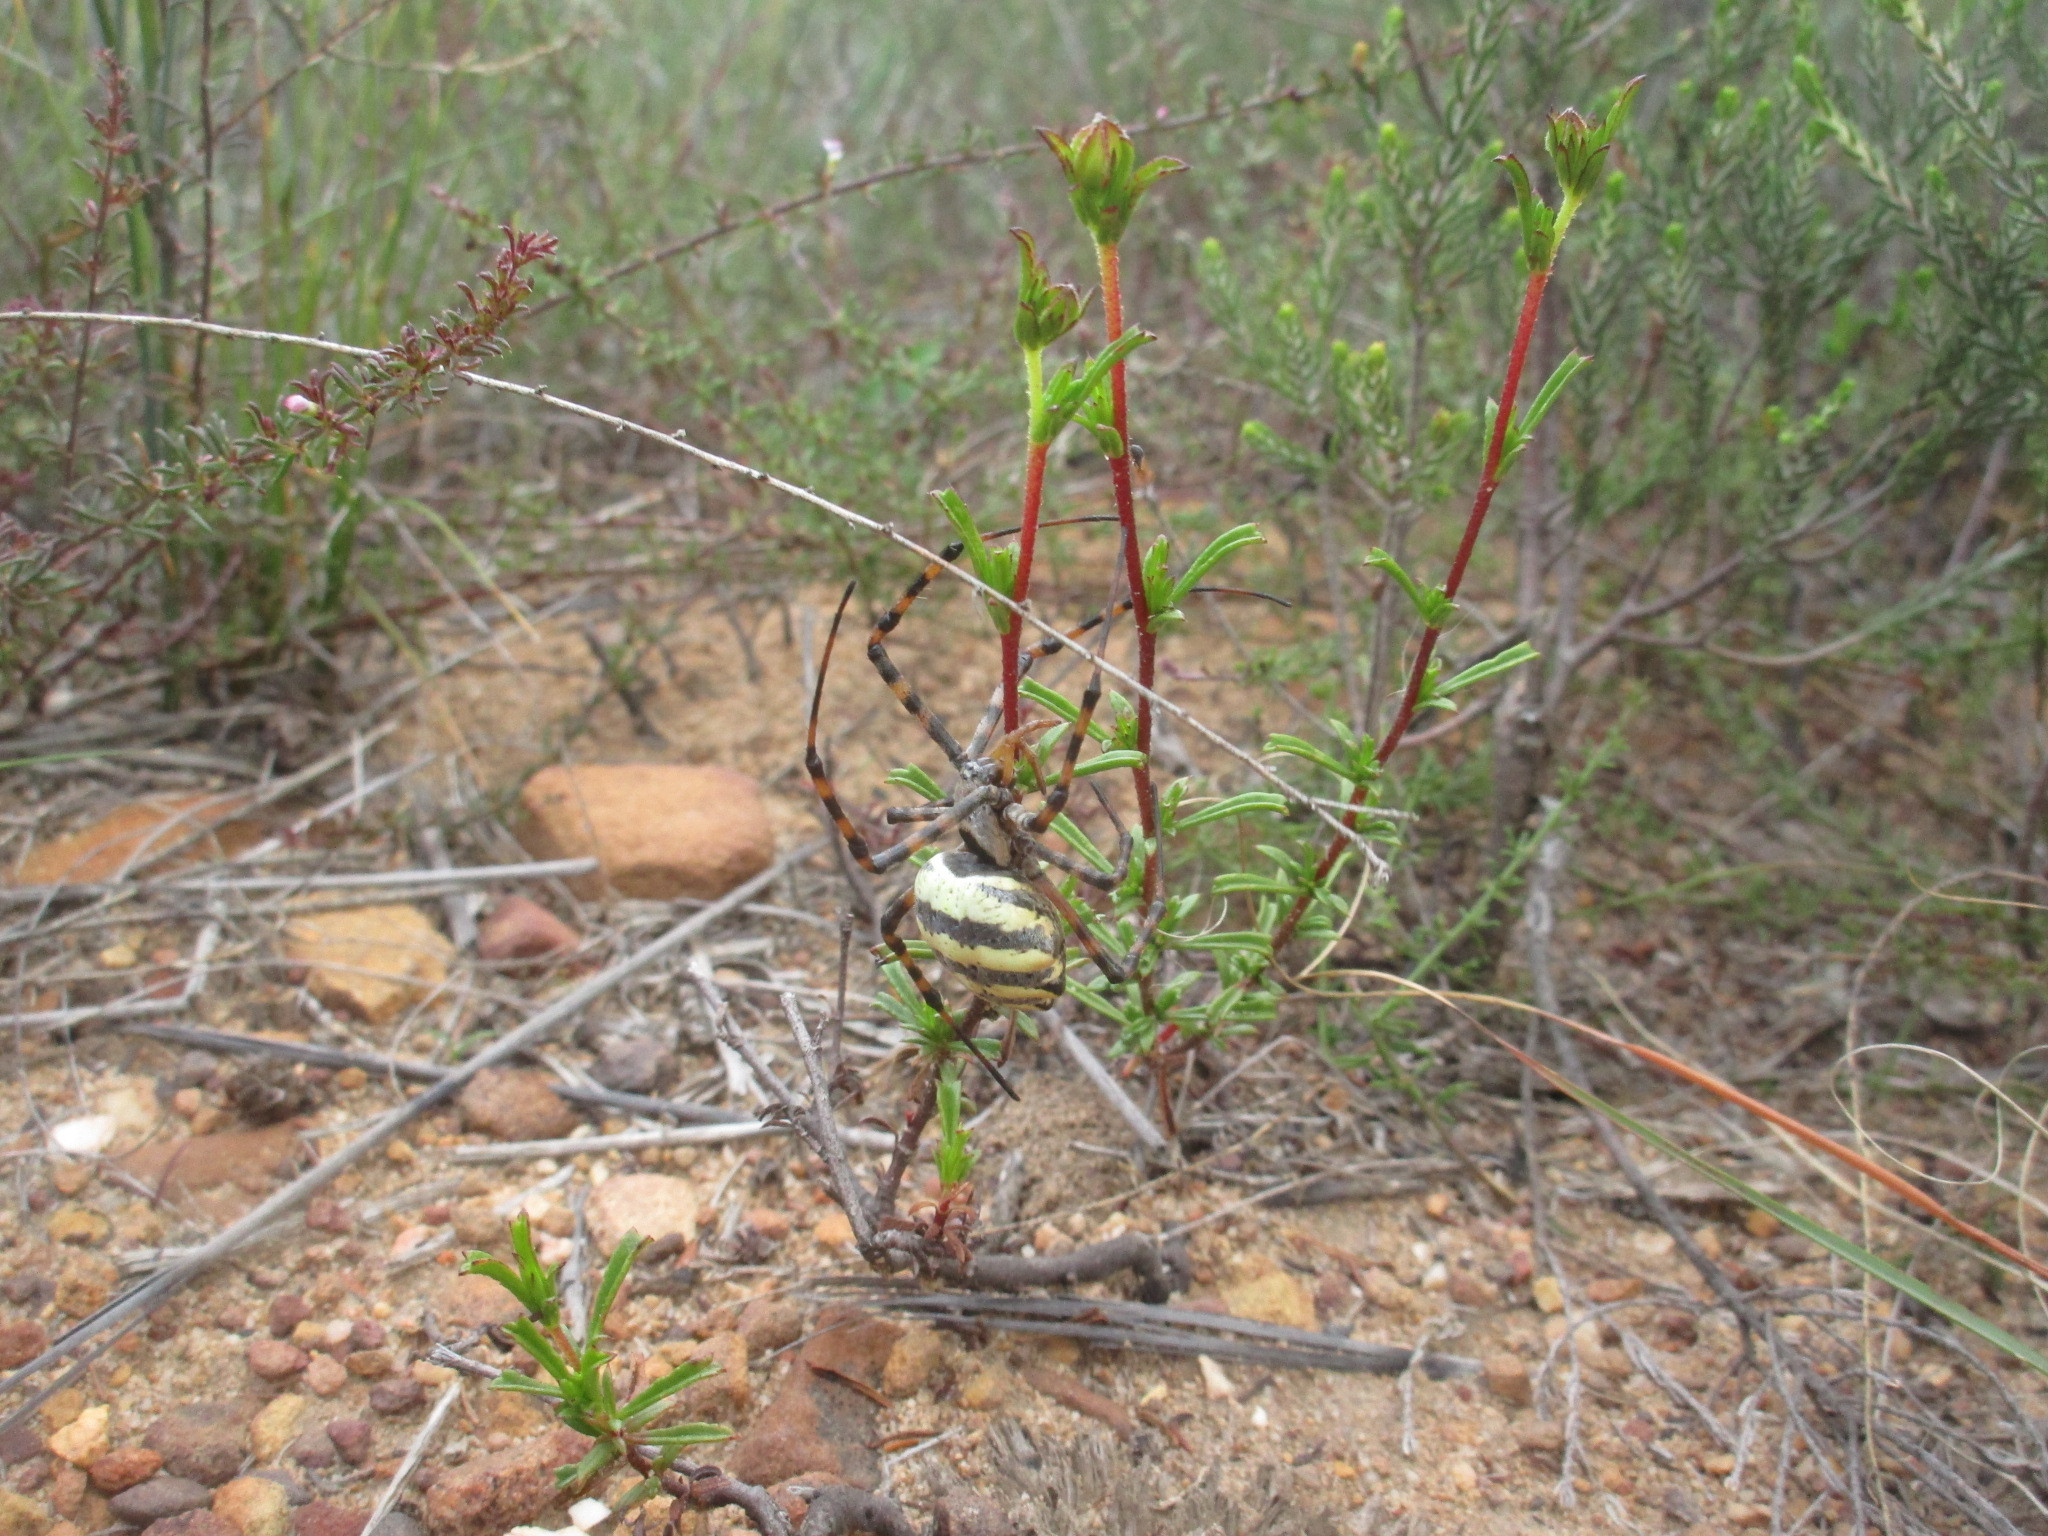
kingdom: Animalia
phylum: Arthropoda
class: Arachnida
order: Araneae
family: Araneidae
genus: Argiope
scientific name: Argiope australis
